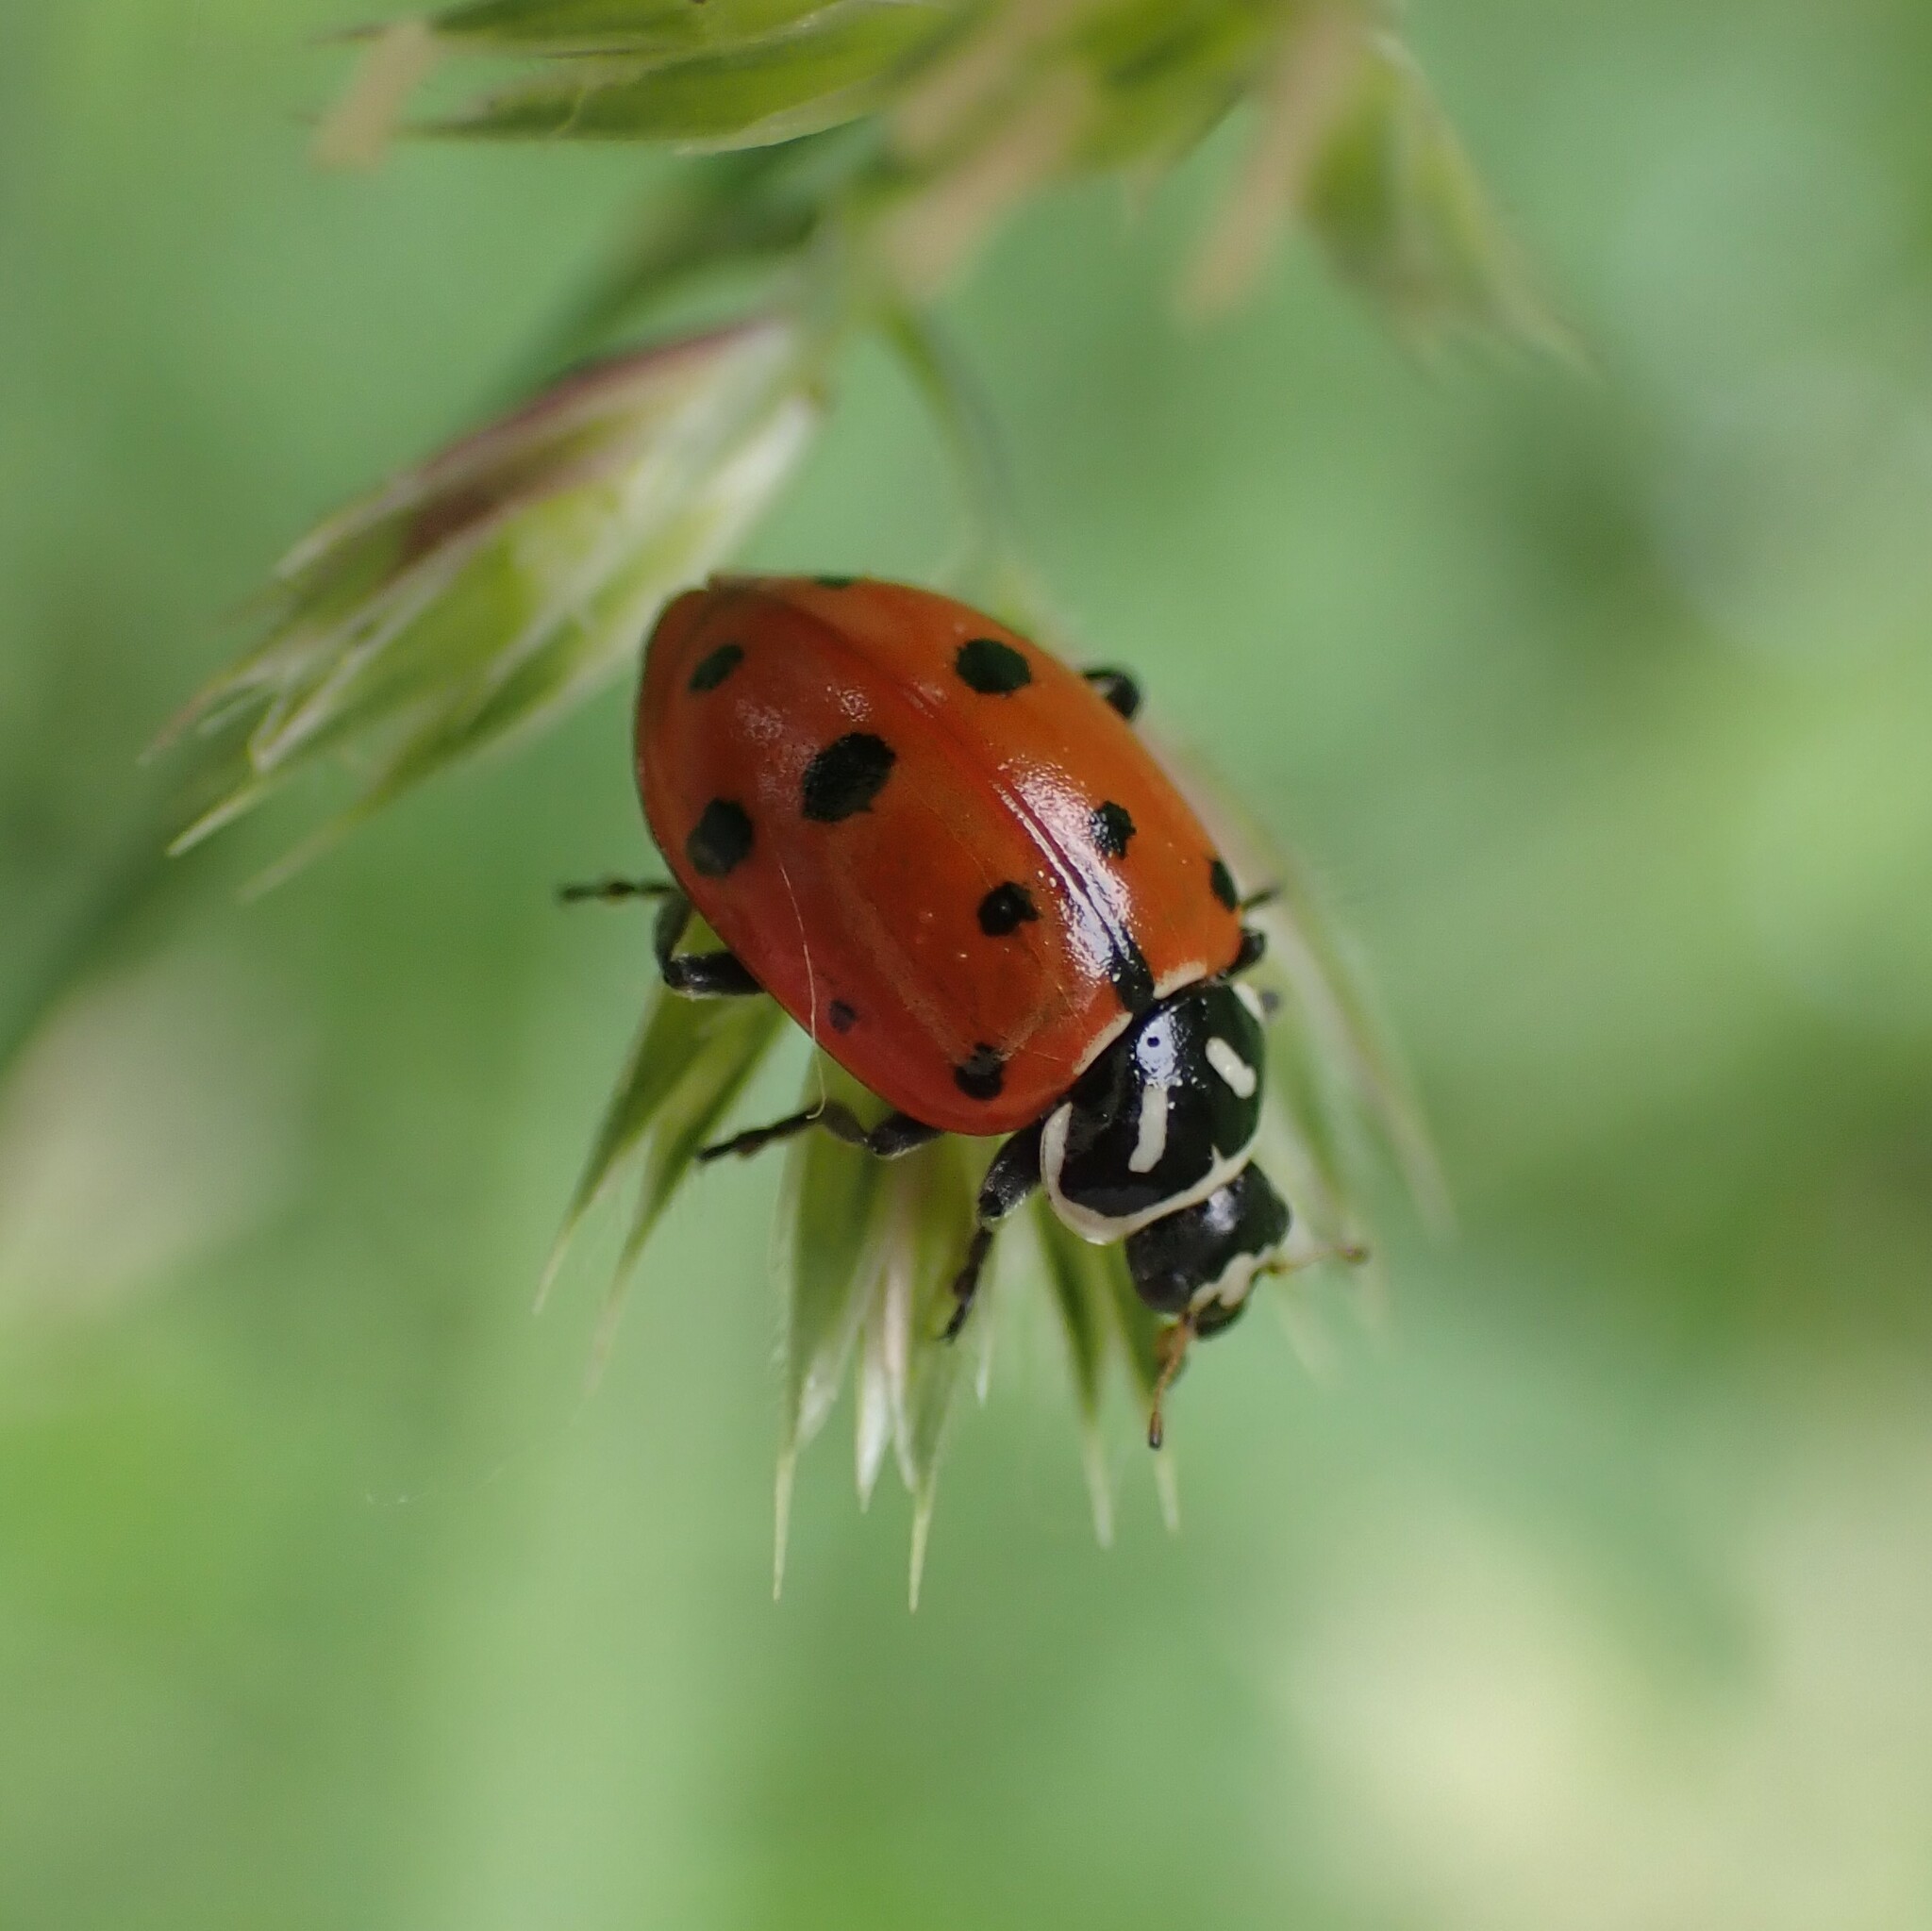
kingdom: Animalia
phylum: Arthropoda
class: Insecta
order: Coleoptera
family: Coccinellidae
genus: Hippodamia
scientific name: Hippodamia convergens
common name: Convergent lady beetle
